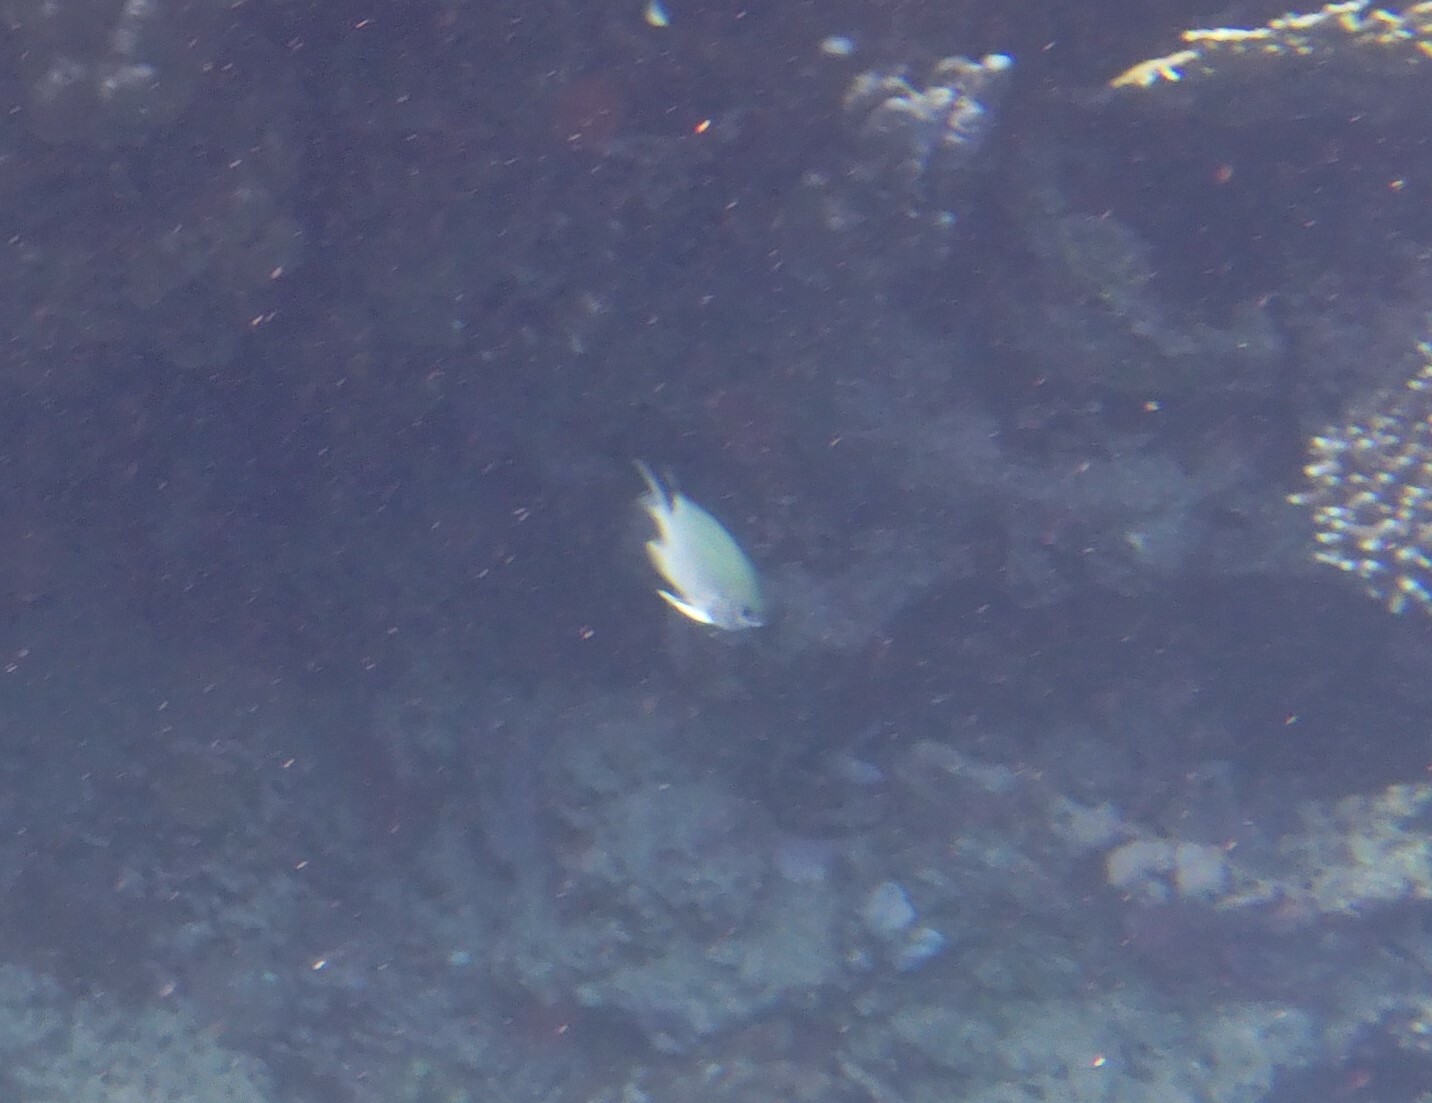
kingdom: Animalia
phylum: Chordata
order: Perciformes
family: Pomacentridae
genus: Amblyglyphidodon
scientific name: Amblyglyphidodon indicus
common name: Maldives damselfish
